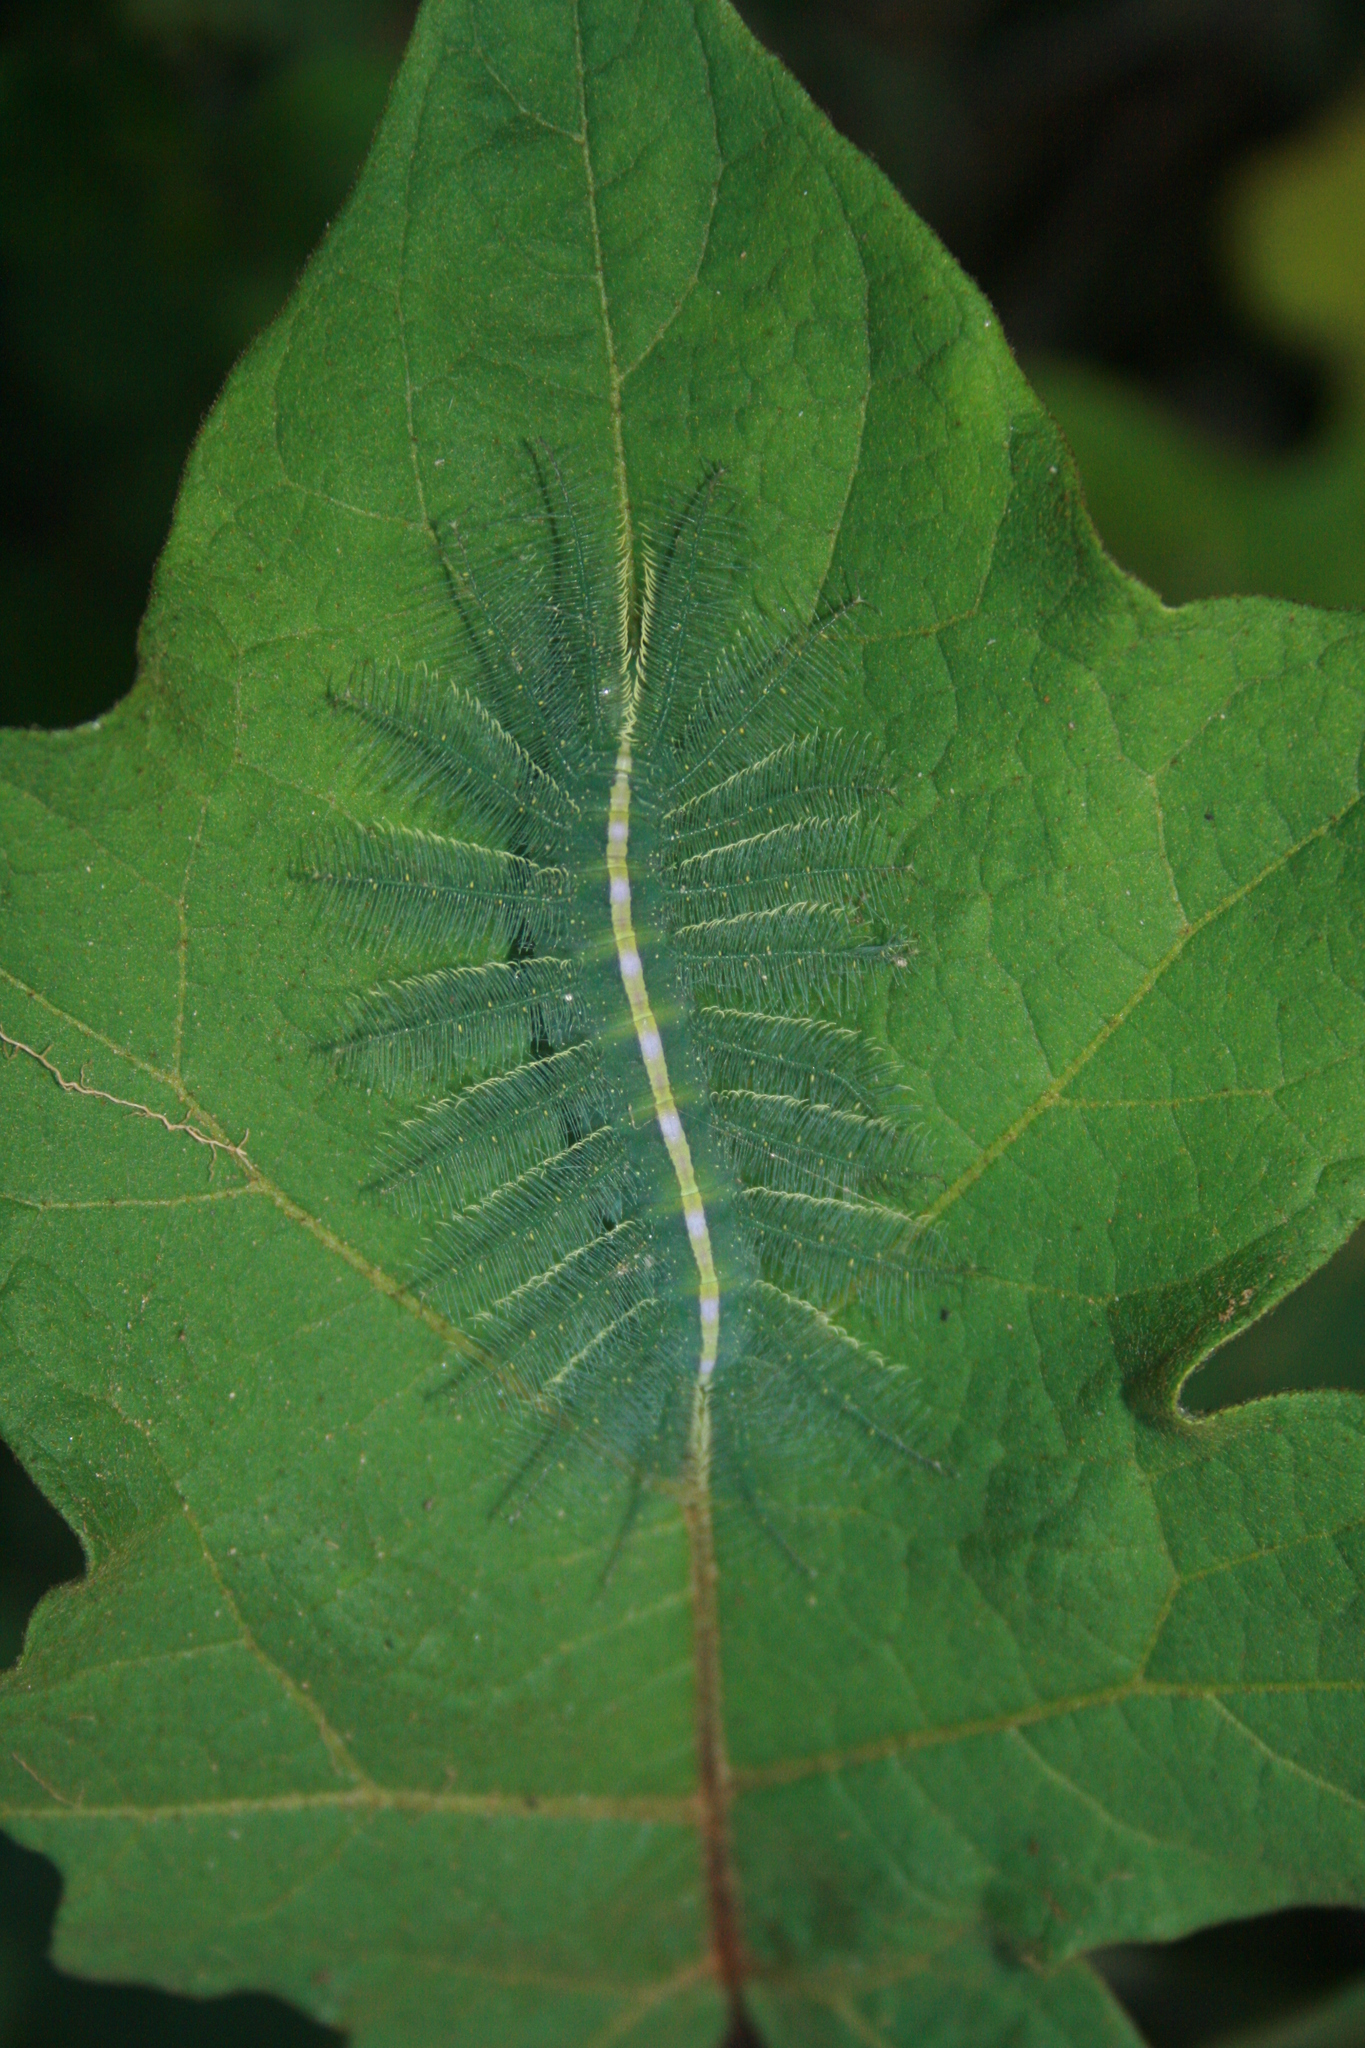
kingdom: Animalia
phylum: Arthropoda
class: Insecta
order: Lepidoptera
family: Nymphalidae
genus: Euthalia
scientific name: Euthalia aconthea
